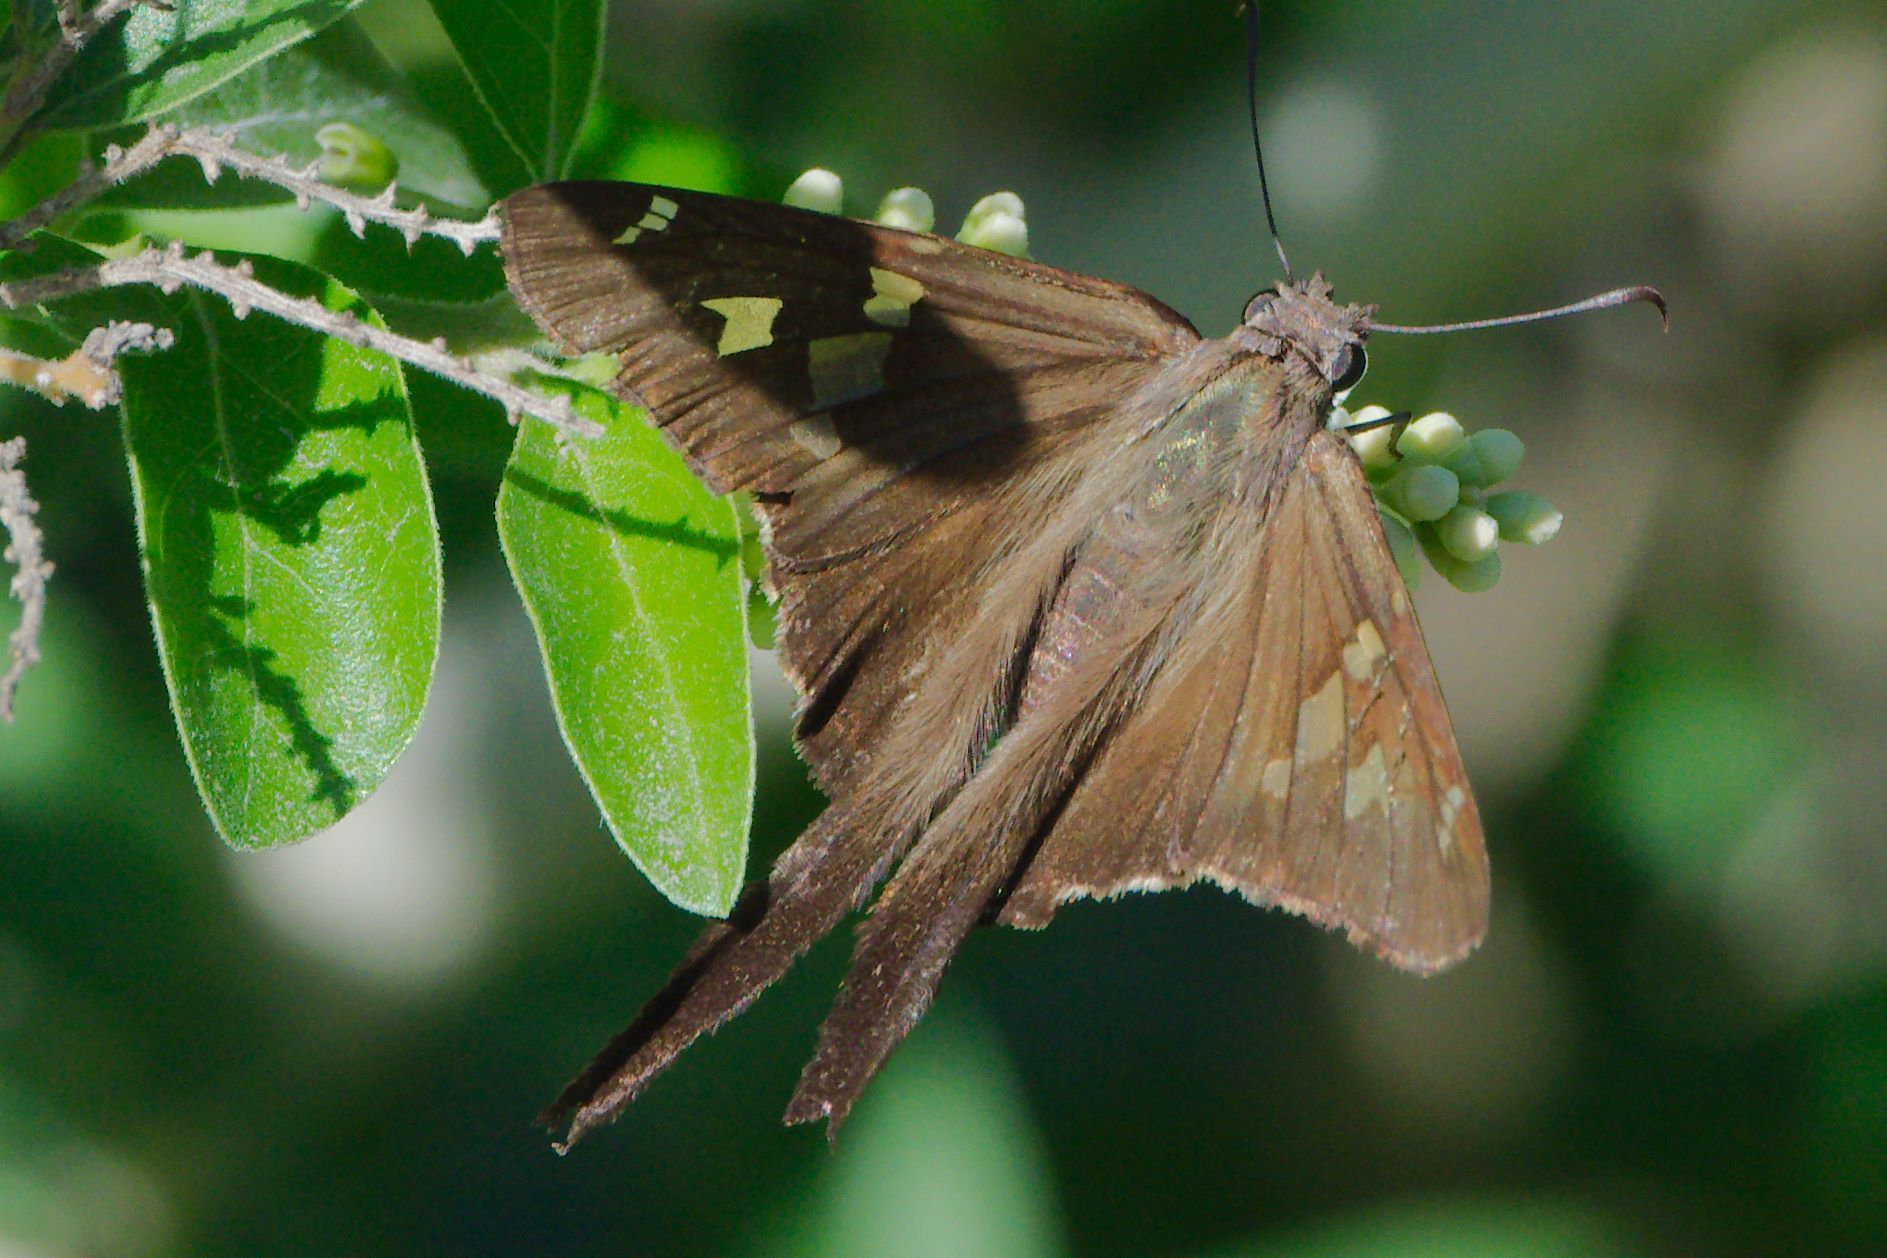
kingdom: Animalia
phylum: Arthropoda
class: Insecta
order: Lepidoptera
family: Hesperiidae
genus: Thorybes
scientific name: Thorybes
